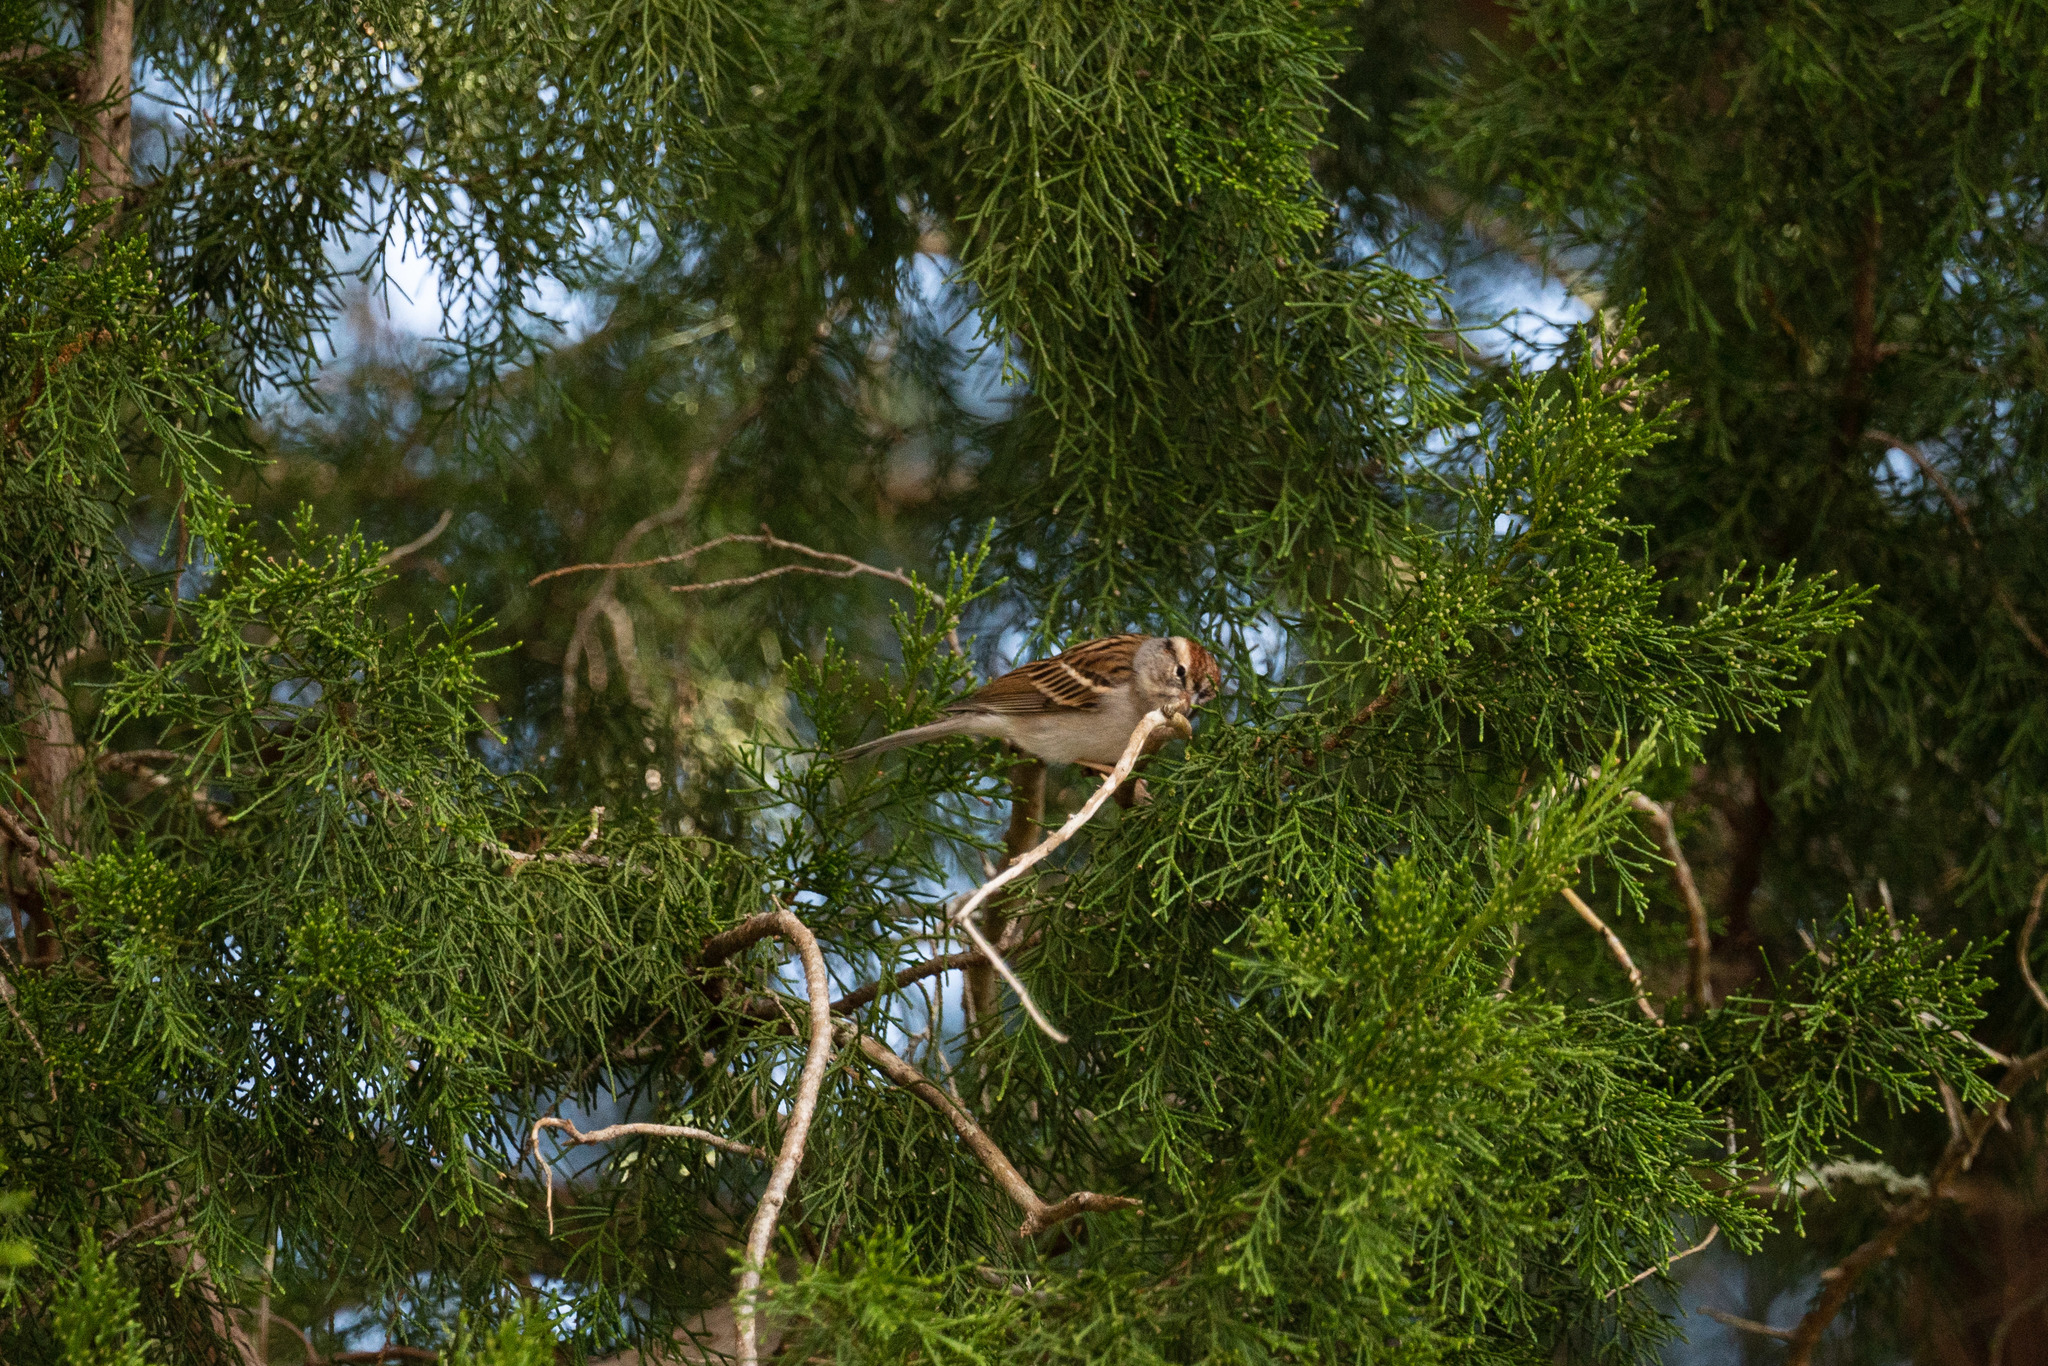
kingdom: Animalia
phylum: Chordata
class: Aves
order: Passeriformes
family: Passerellidae
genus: Spizella
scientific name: Spizella passerina
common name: Chipping sparrow
